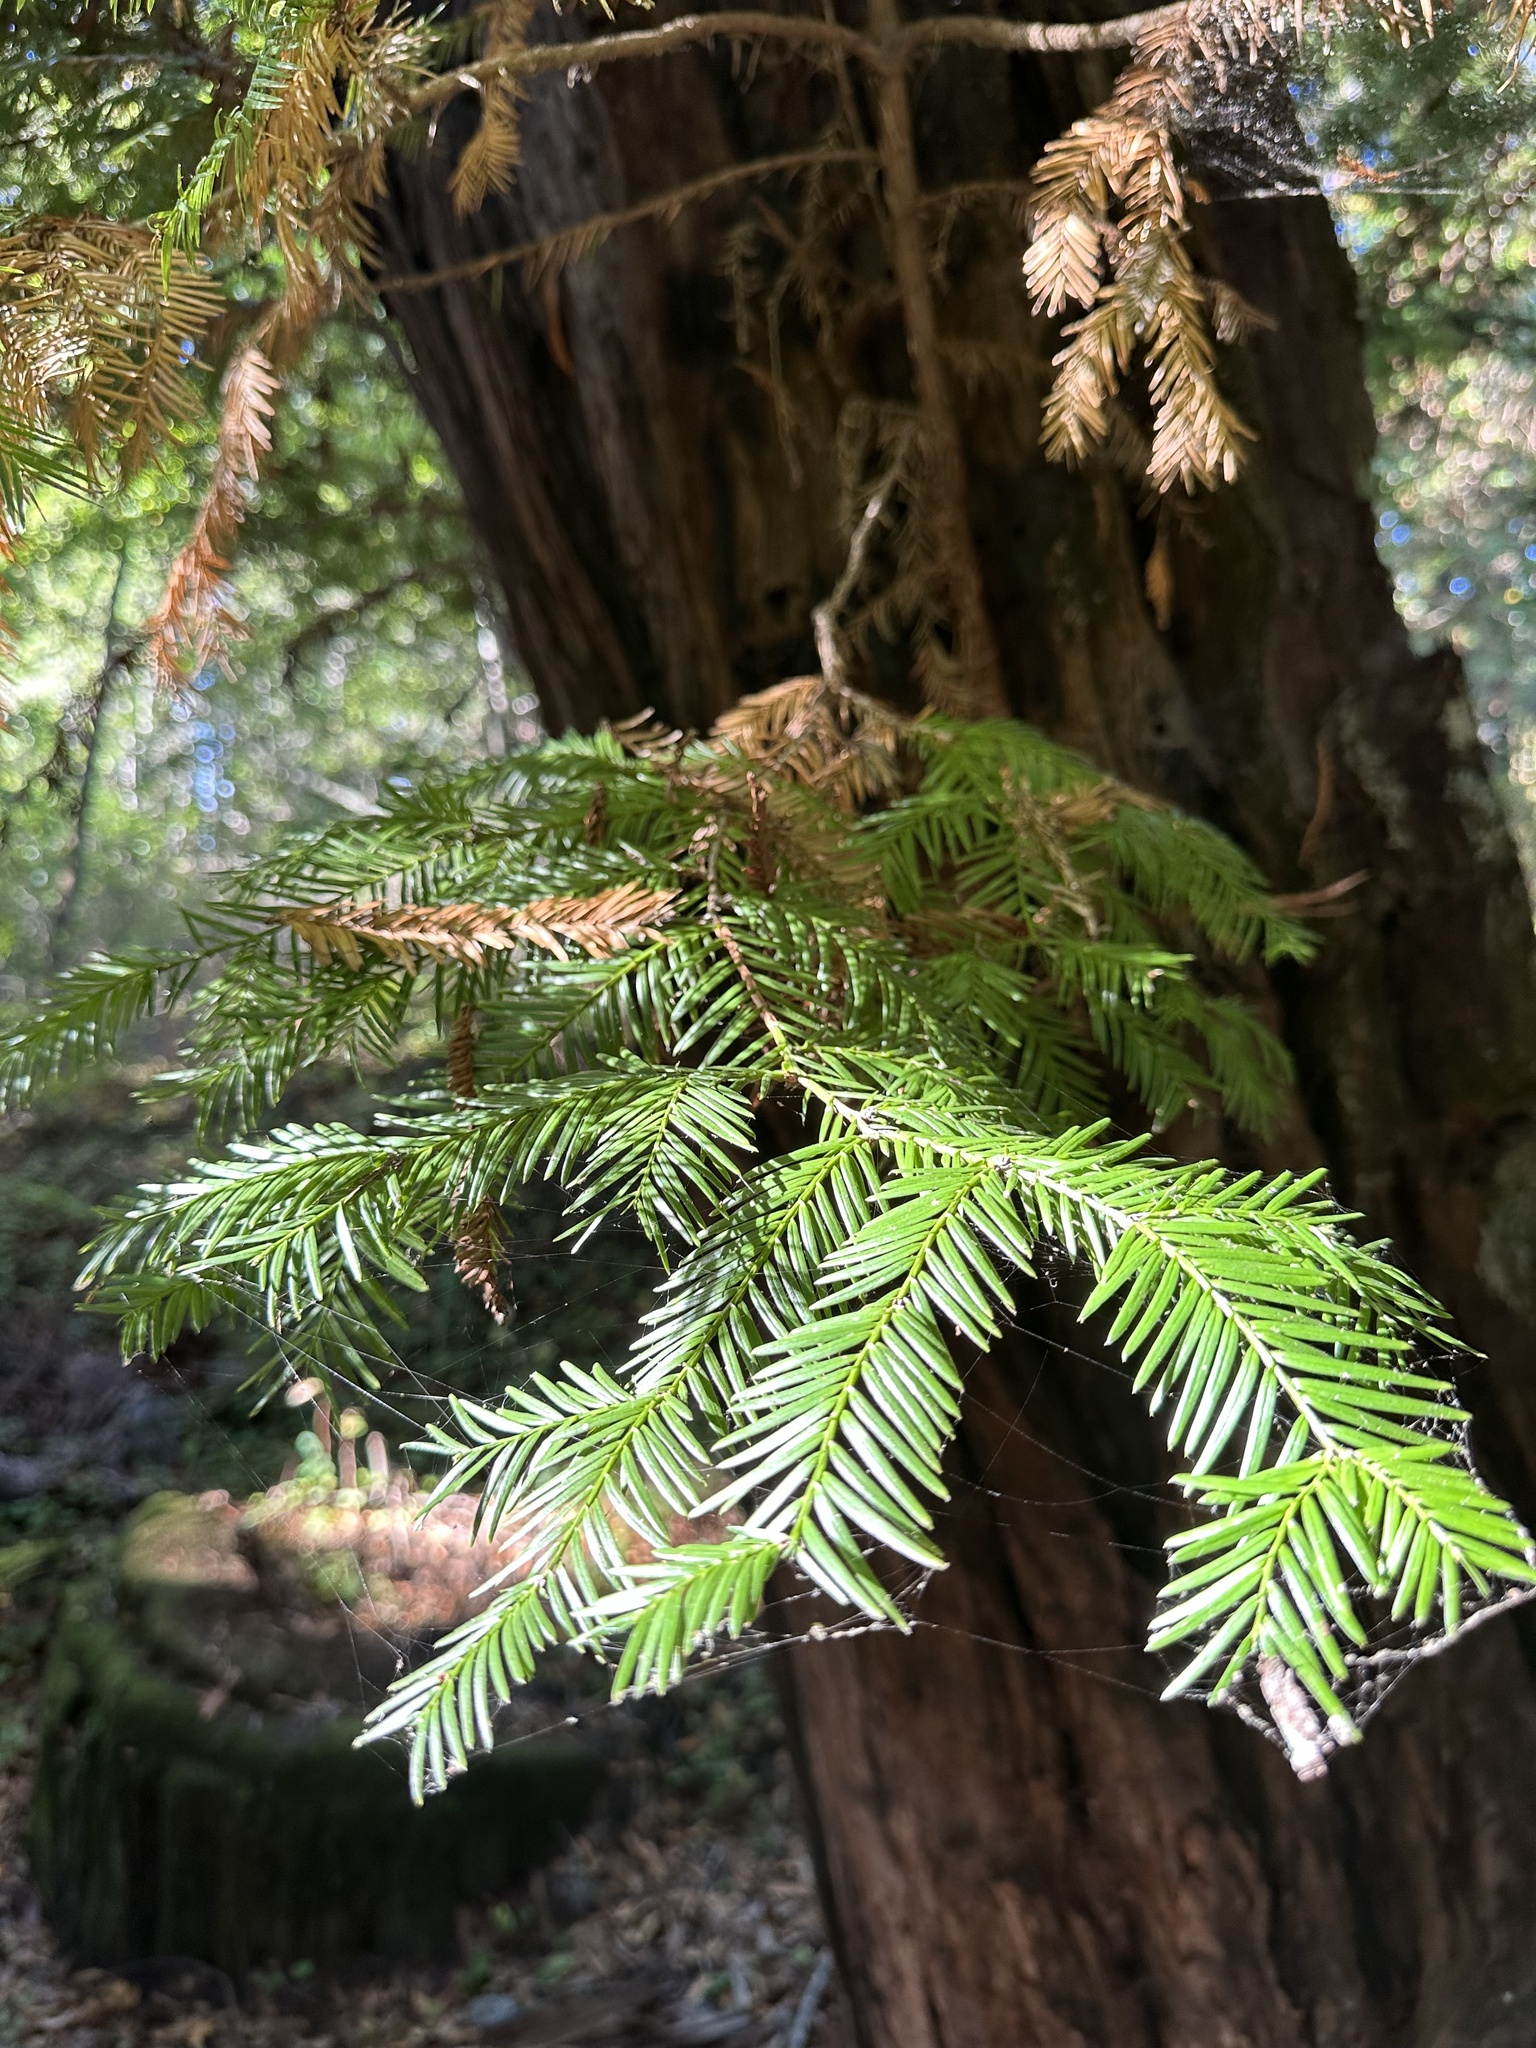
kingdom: Plantae
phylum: Tracheophyta
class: Pinopsida
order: Pinales
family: Cupressaceae
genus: Sequoia
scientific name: Sequoia sempervirens
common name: Coast redwood
